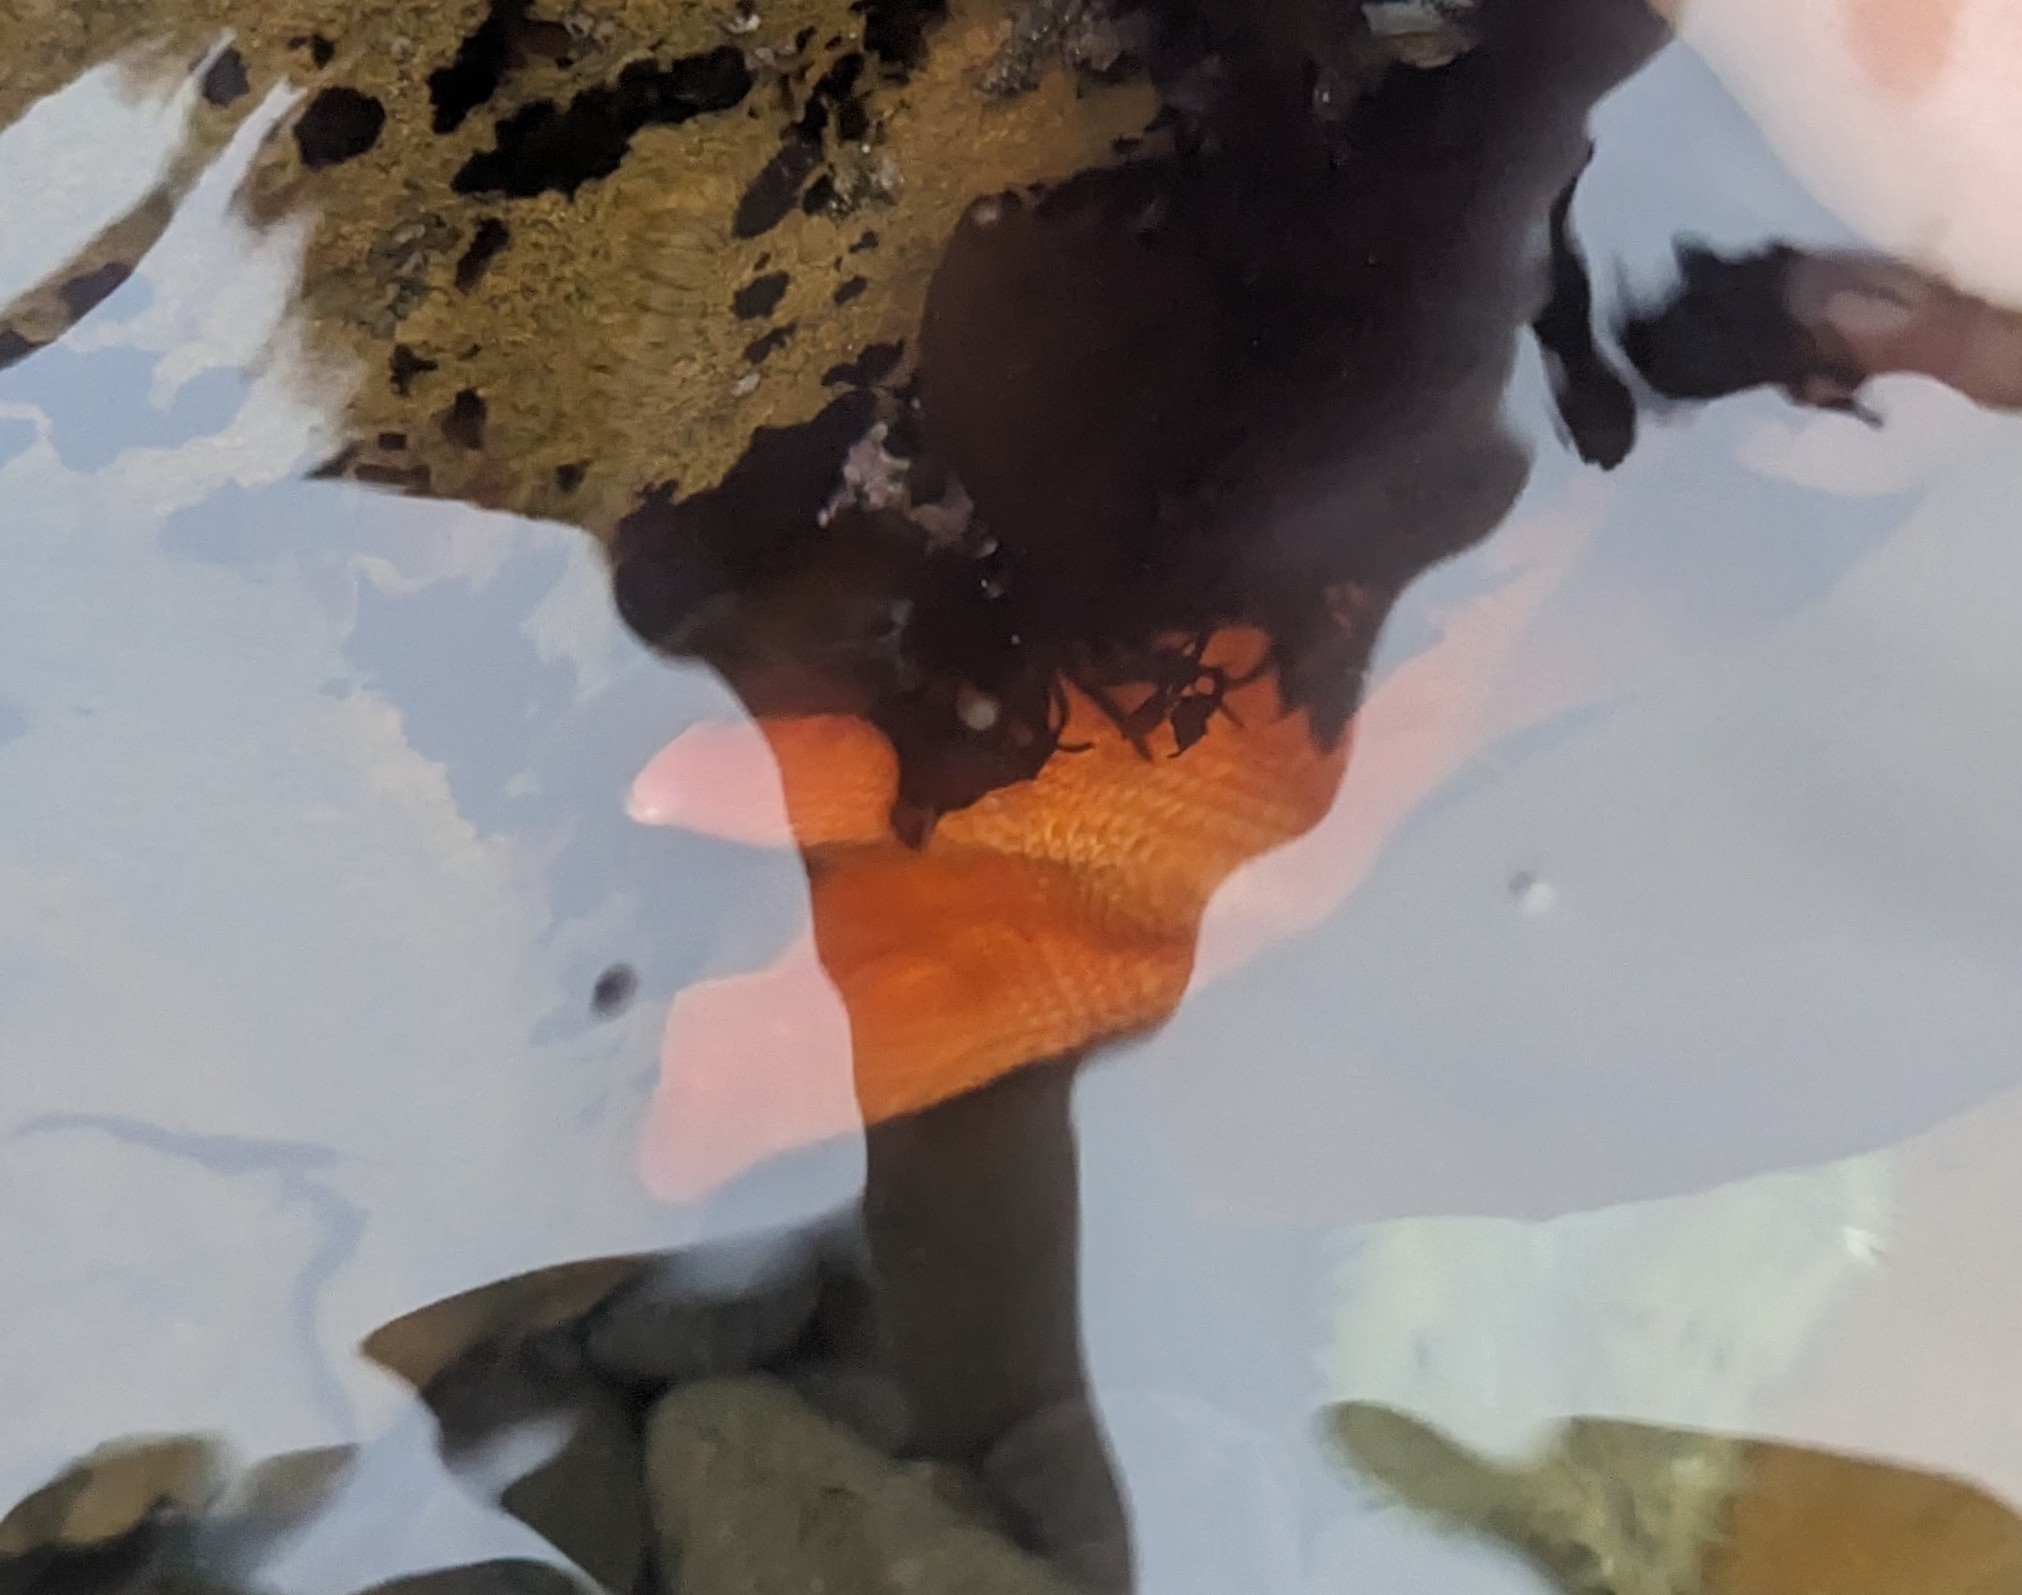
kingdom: Animalia
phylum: Echinodermata
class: Asteroidea
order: Valvatida
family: Asterinidae
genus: Patiria
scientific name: Patiria miniata
